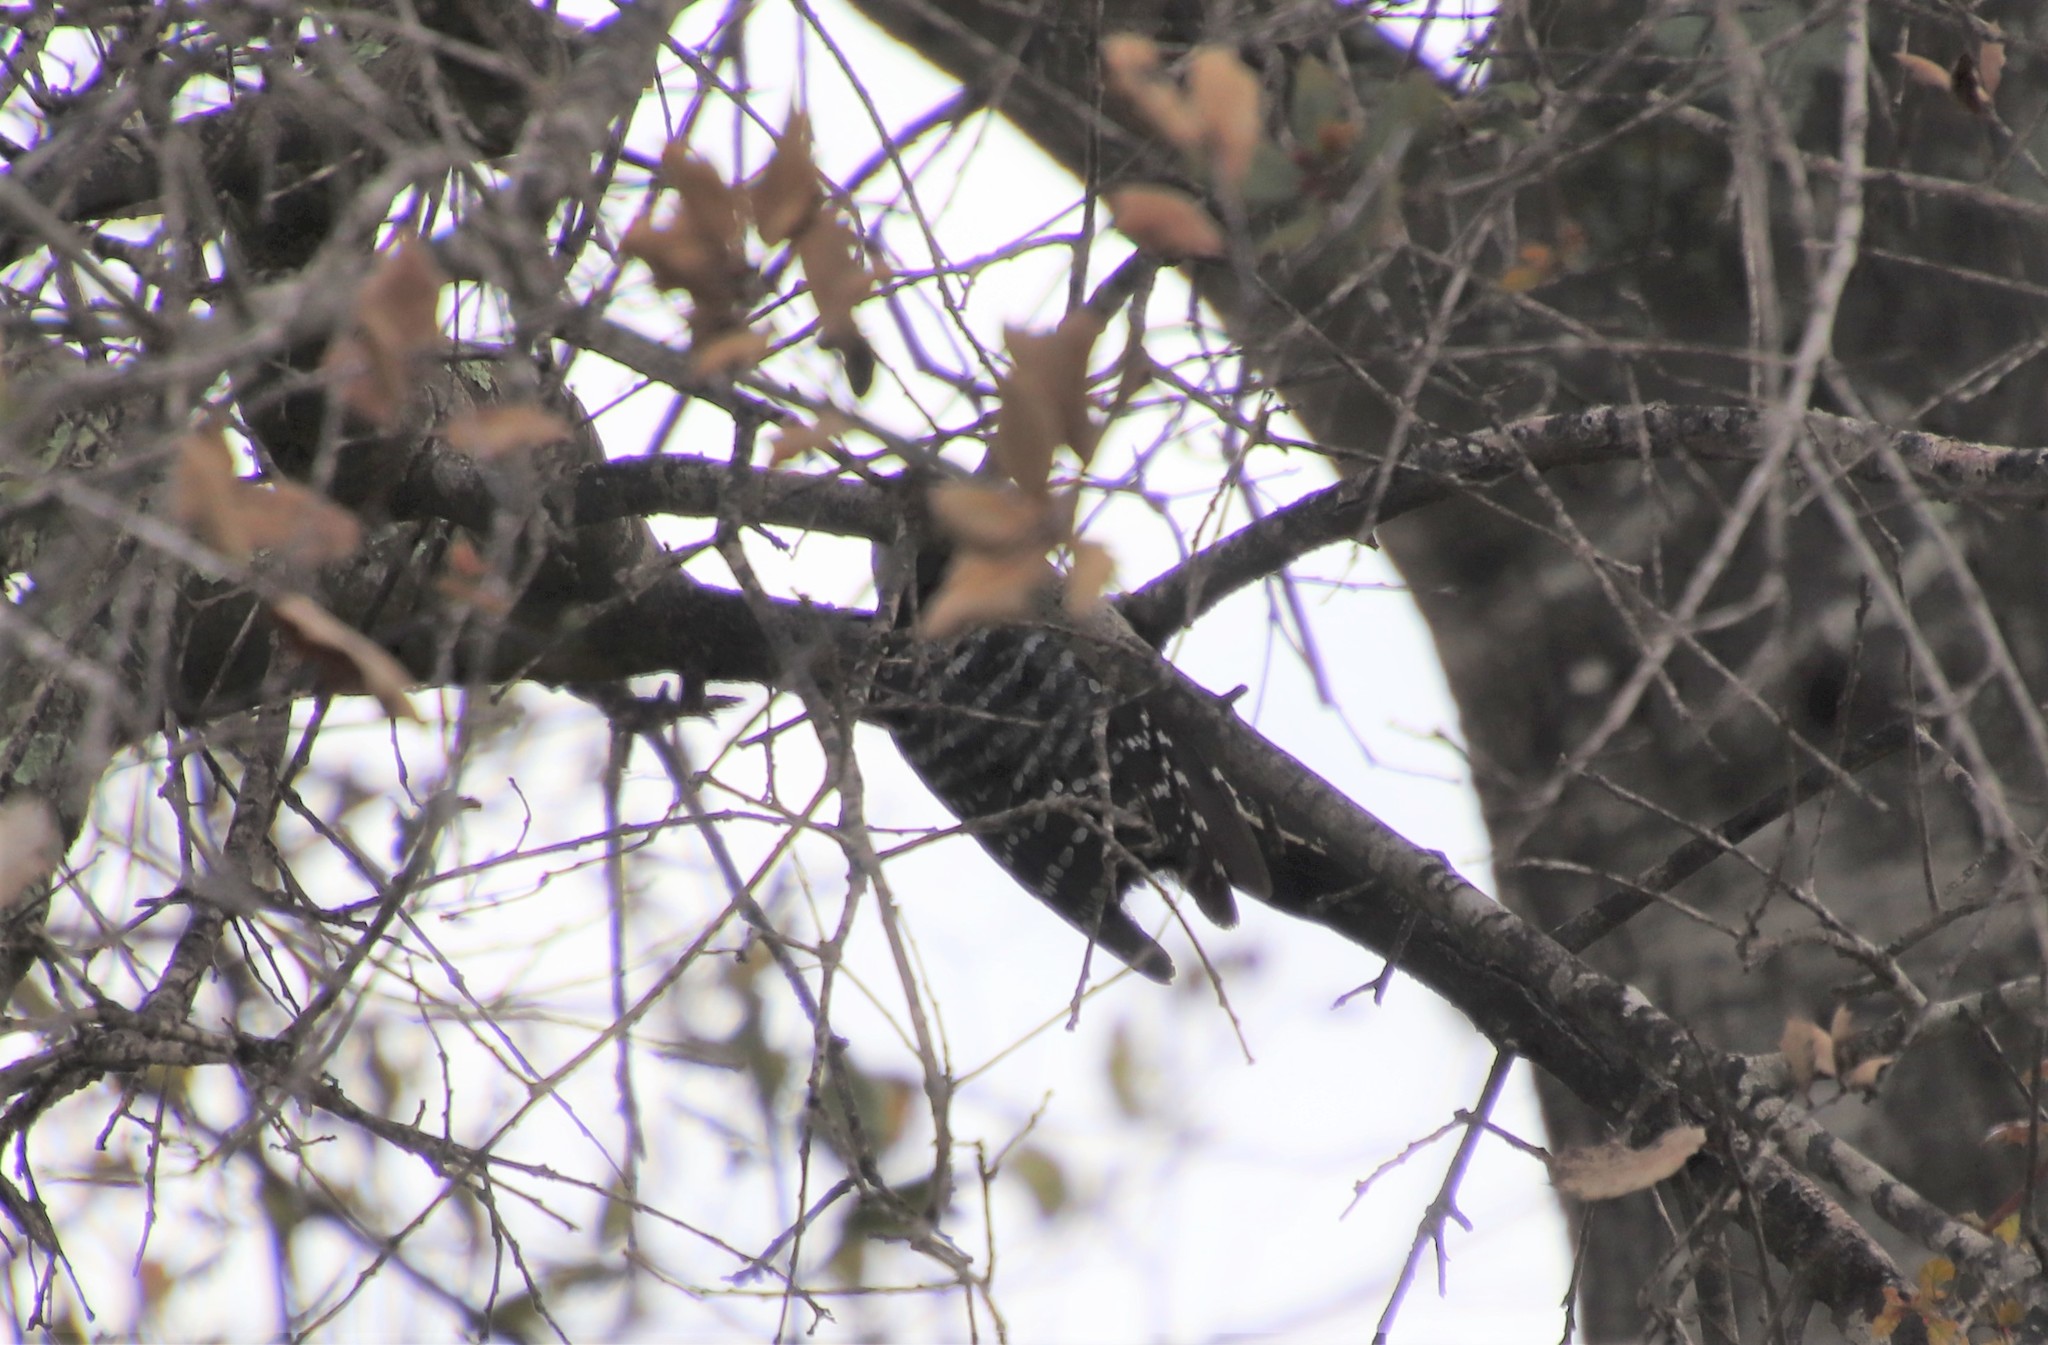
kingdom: Animalia
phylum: Chordata
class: Aves
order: Piciformes
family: Picidae
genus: Dryobates
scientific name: Dryobates nuttallii
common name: Nuttall's woodpecker
